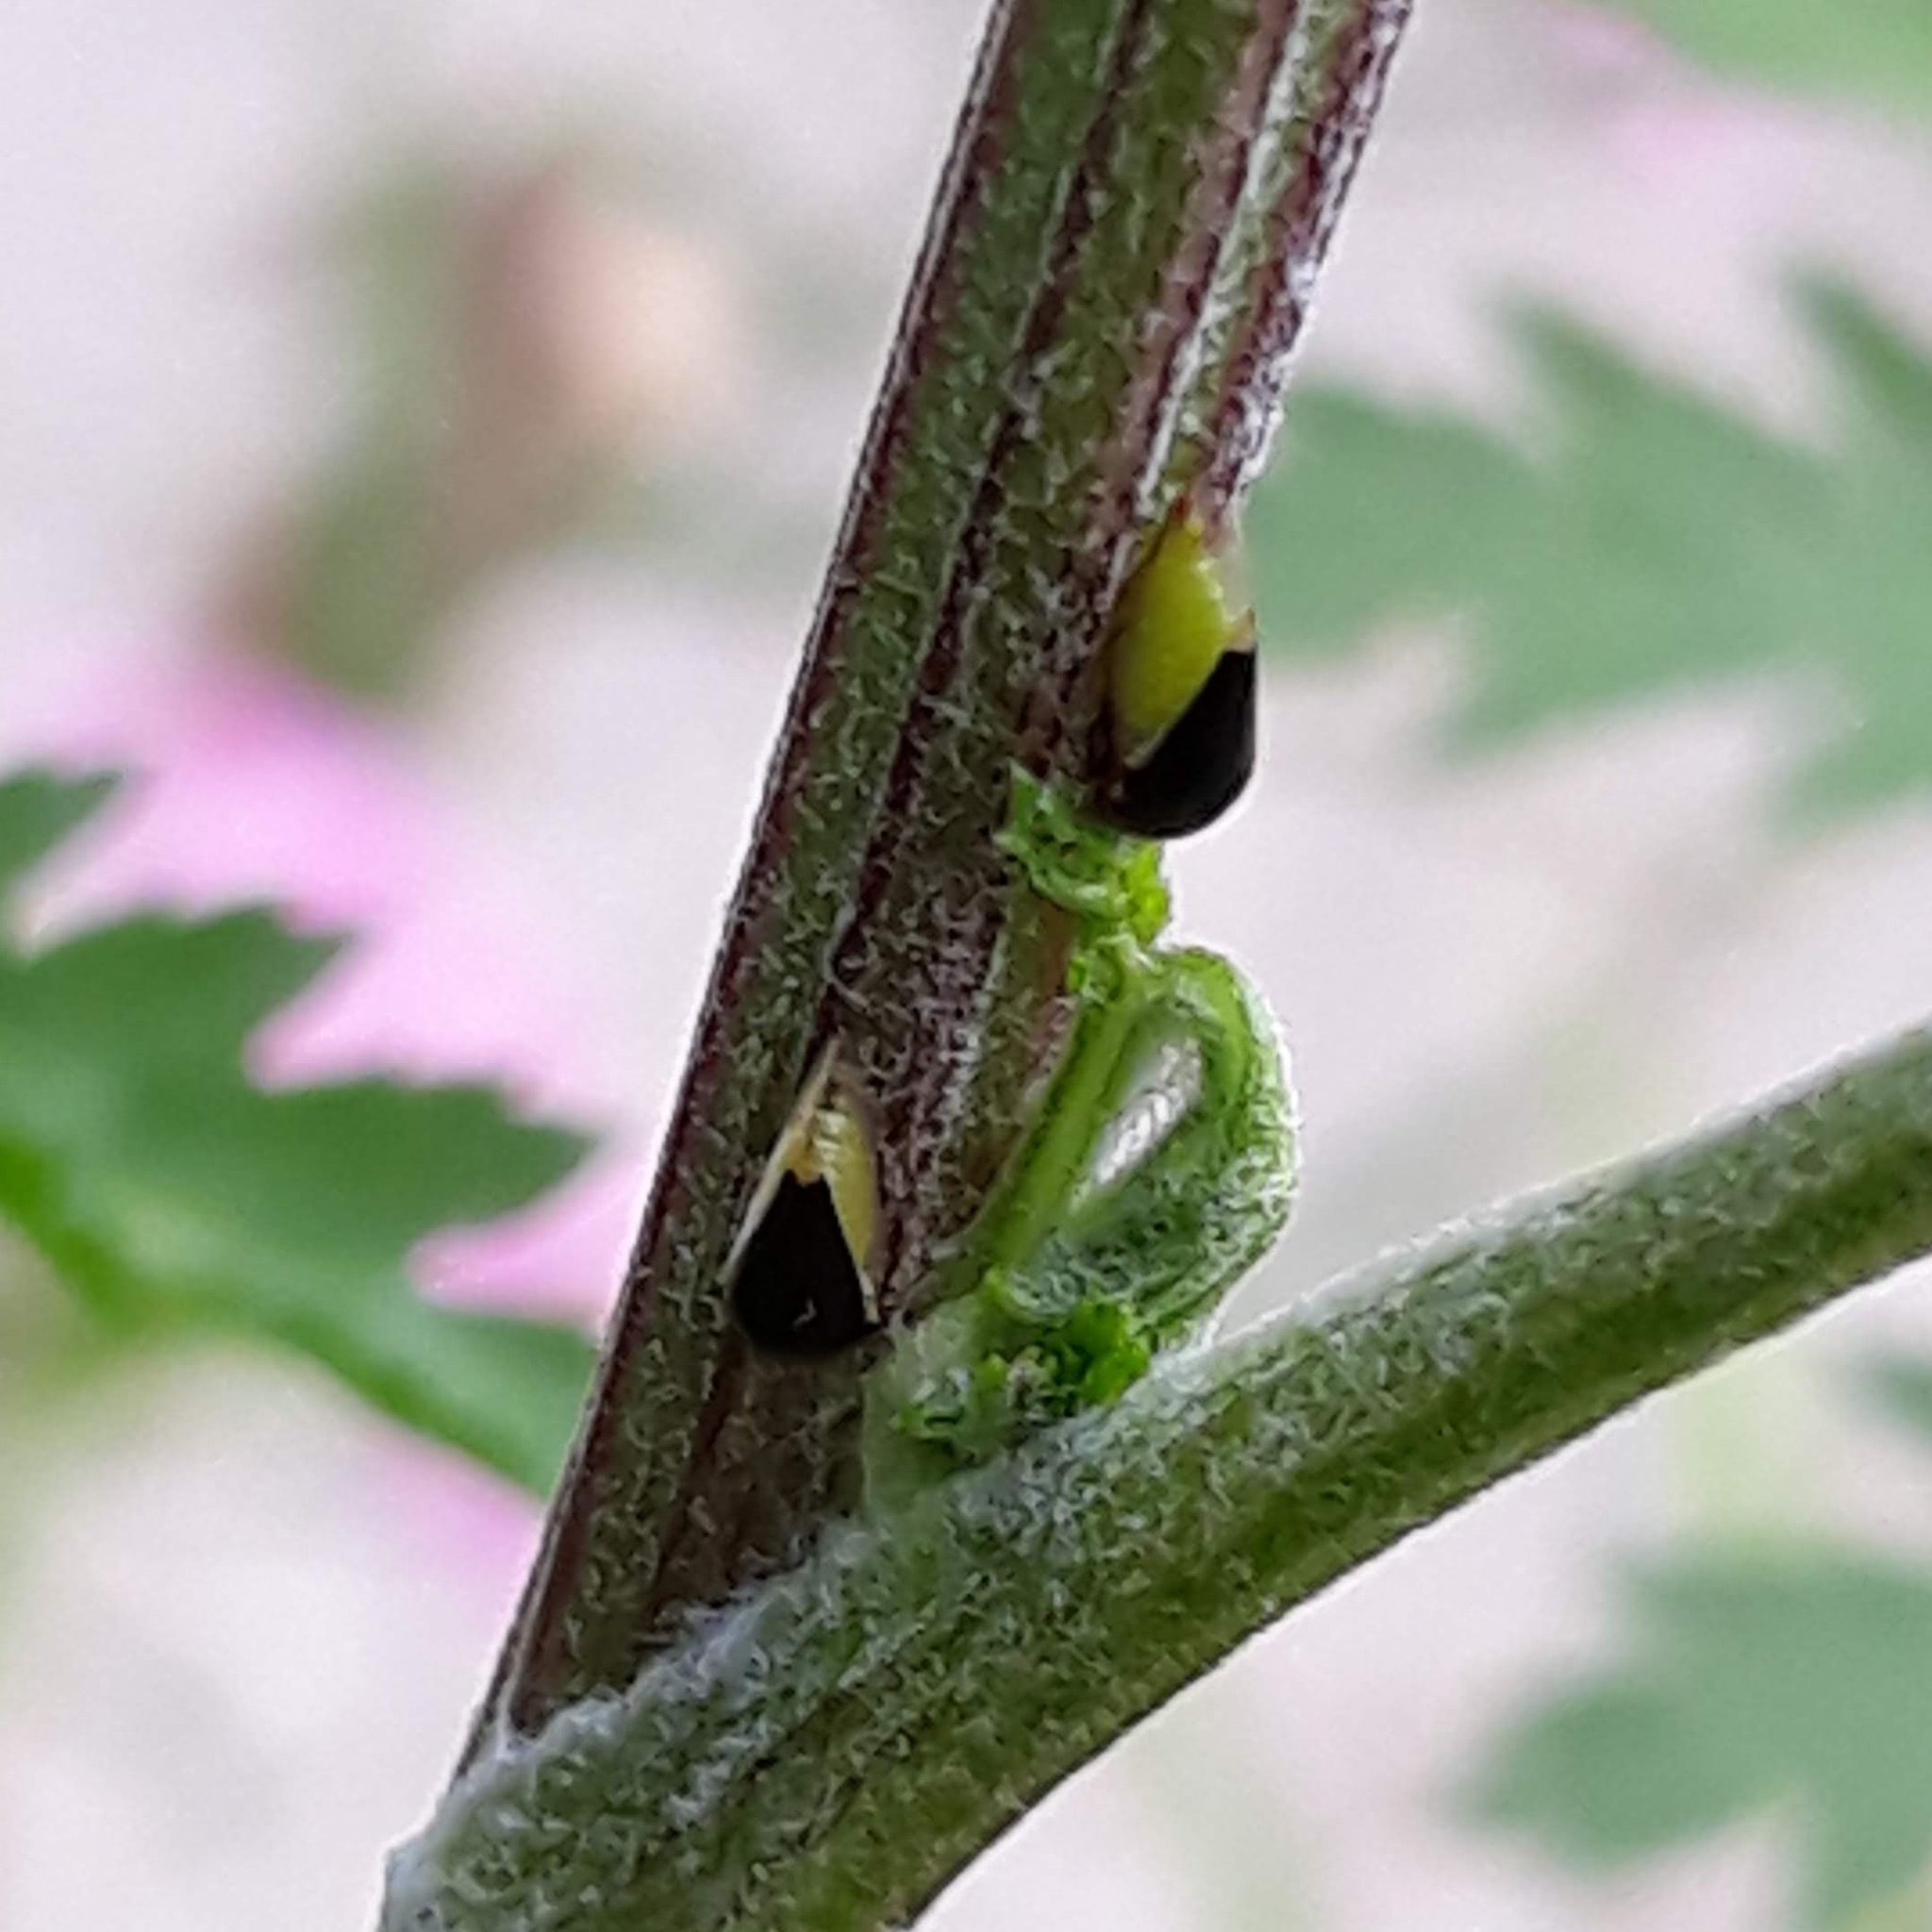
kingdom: Animalia
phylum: Arthropoda
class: Insecta
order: Hemiptera
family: Membracidae
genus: Micrutalis
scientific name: Micrutalis calva
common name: Honeylocust treehopper
